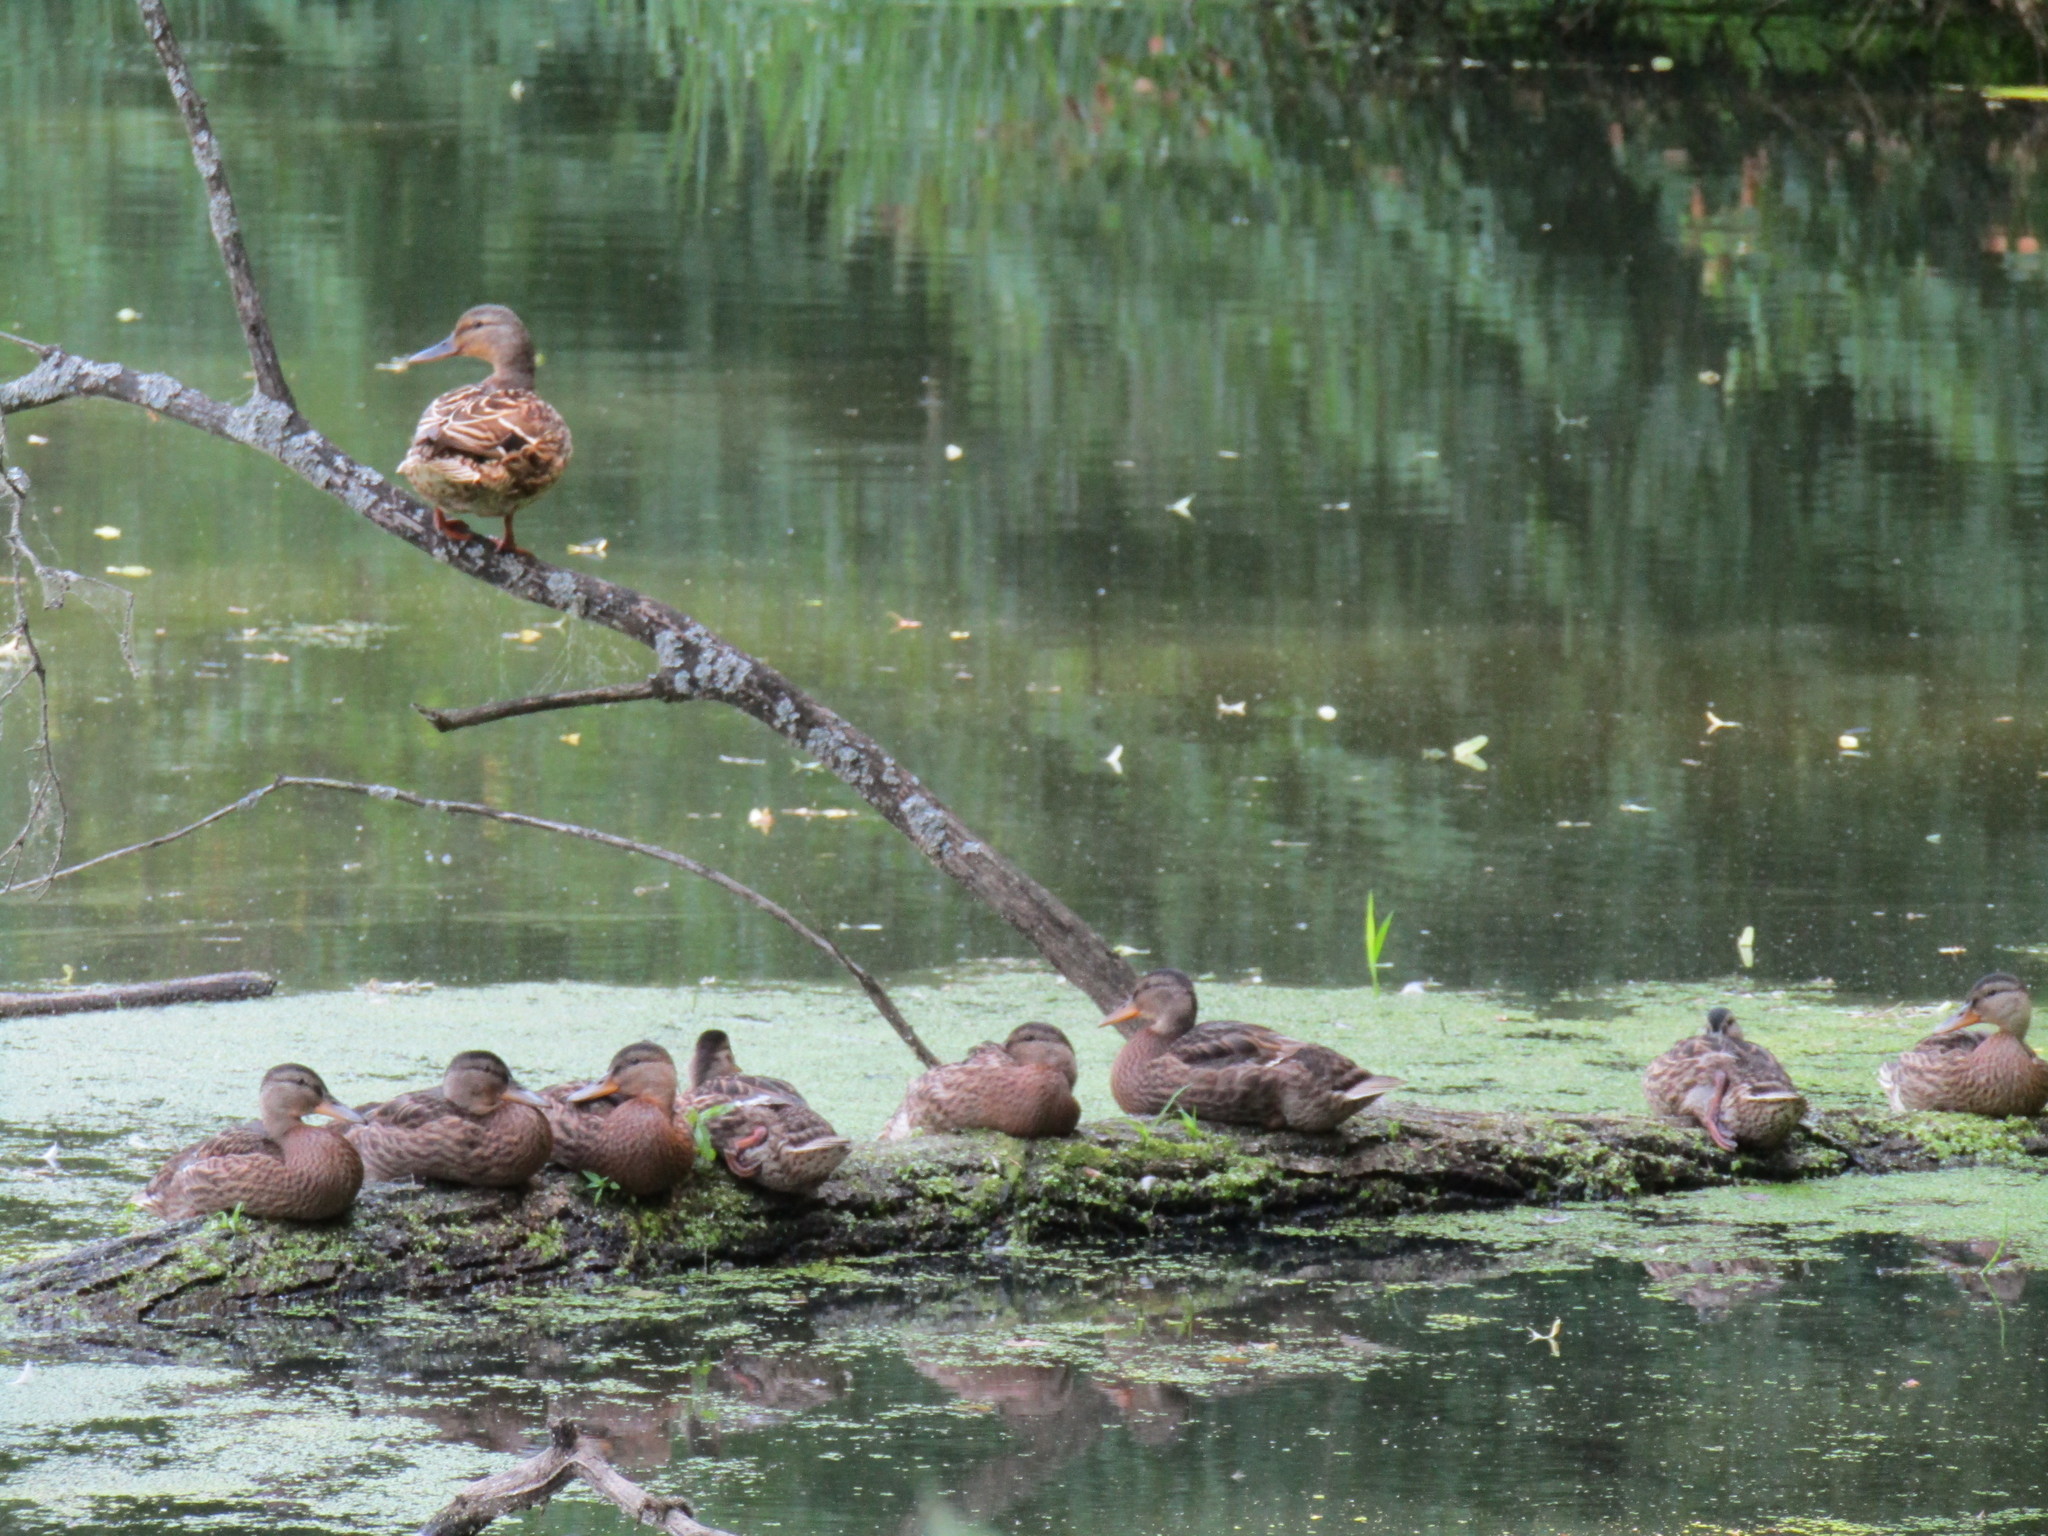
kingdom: Animalia
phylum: Chordata
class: Aves
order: Anseriformes
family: Anatidae
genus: Anas
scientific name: Anas platyrhynchos
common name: Mallard
